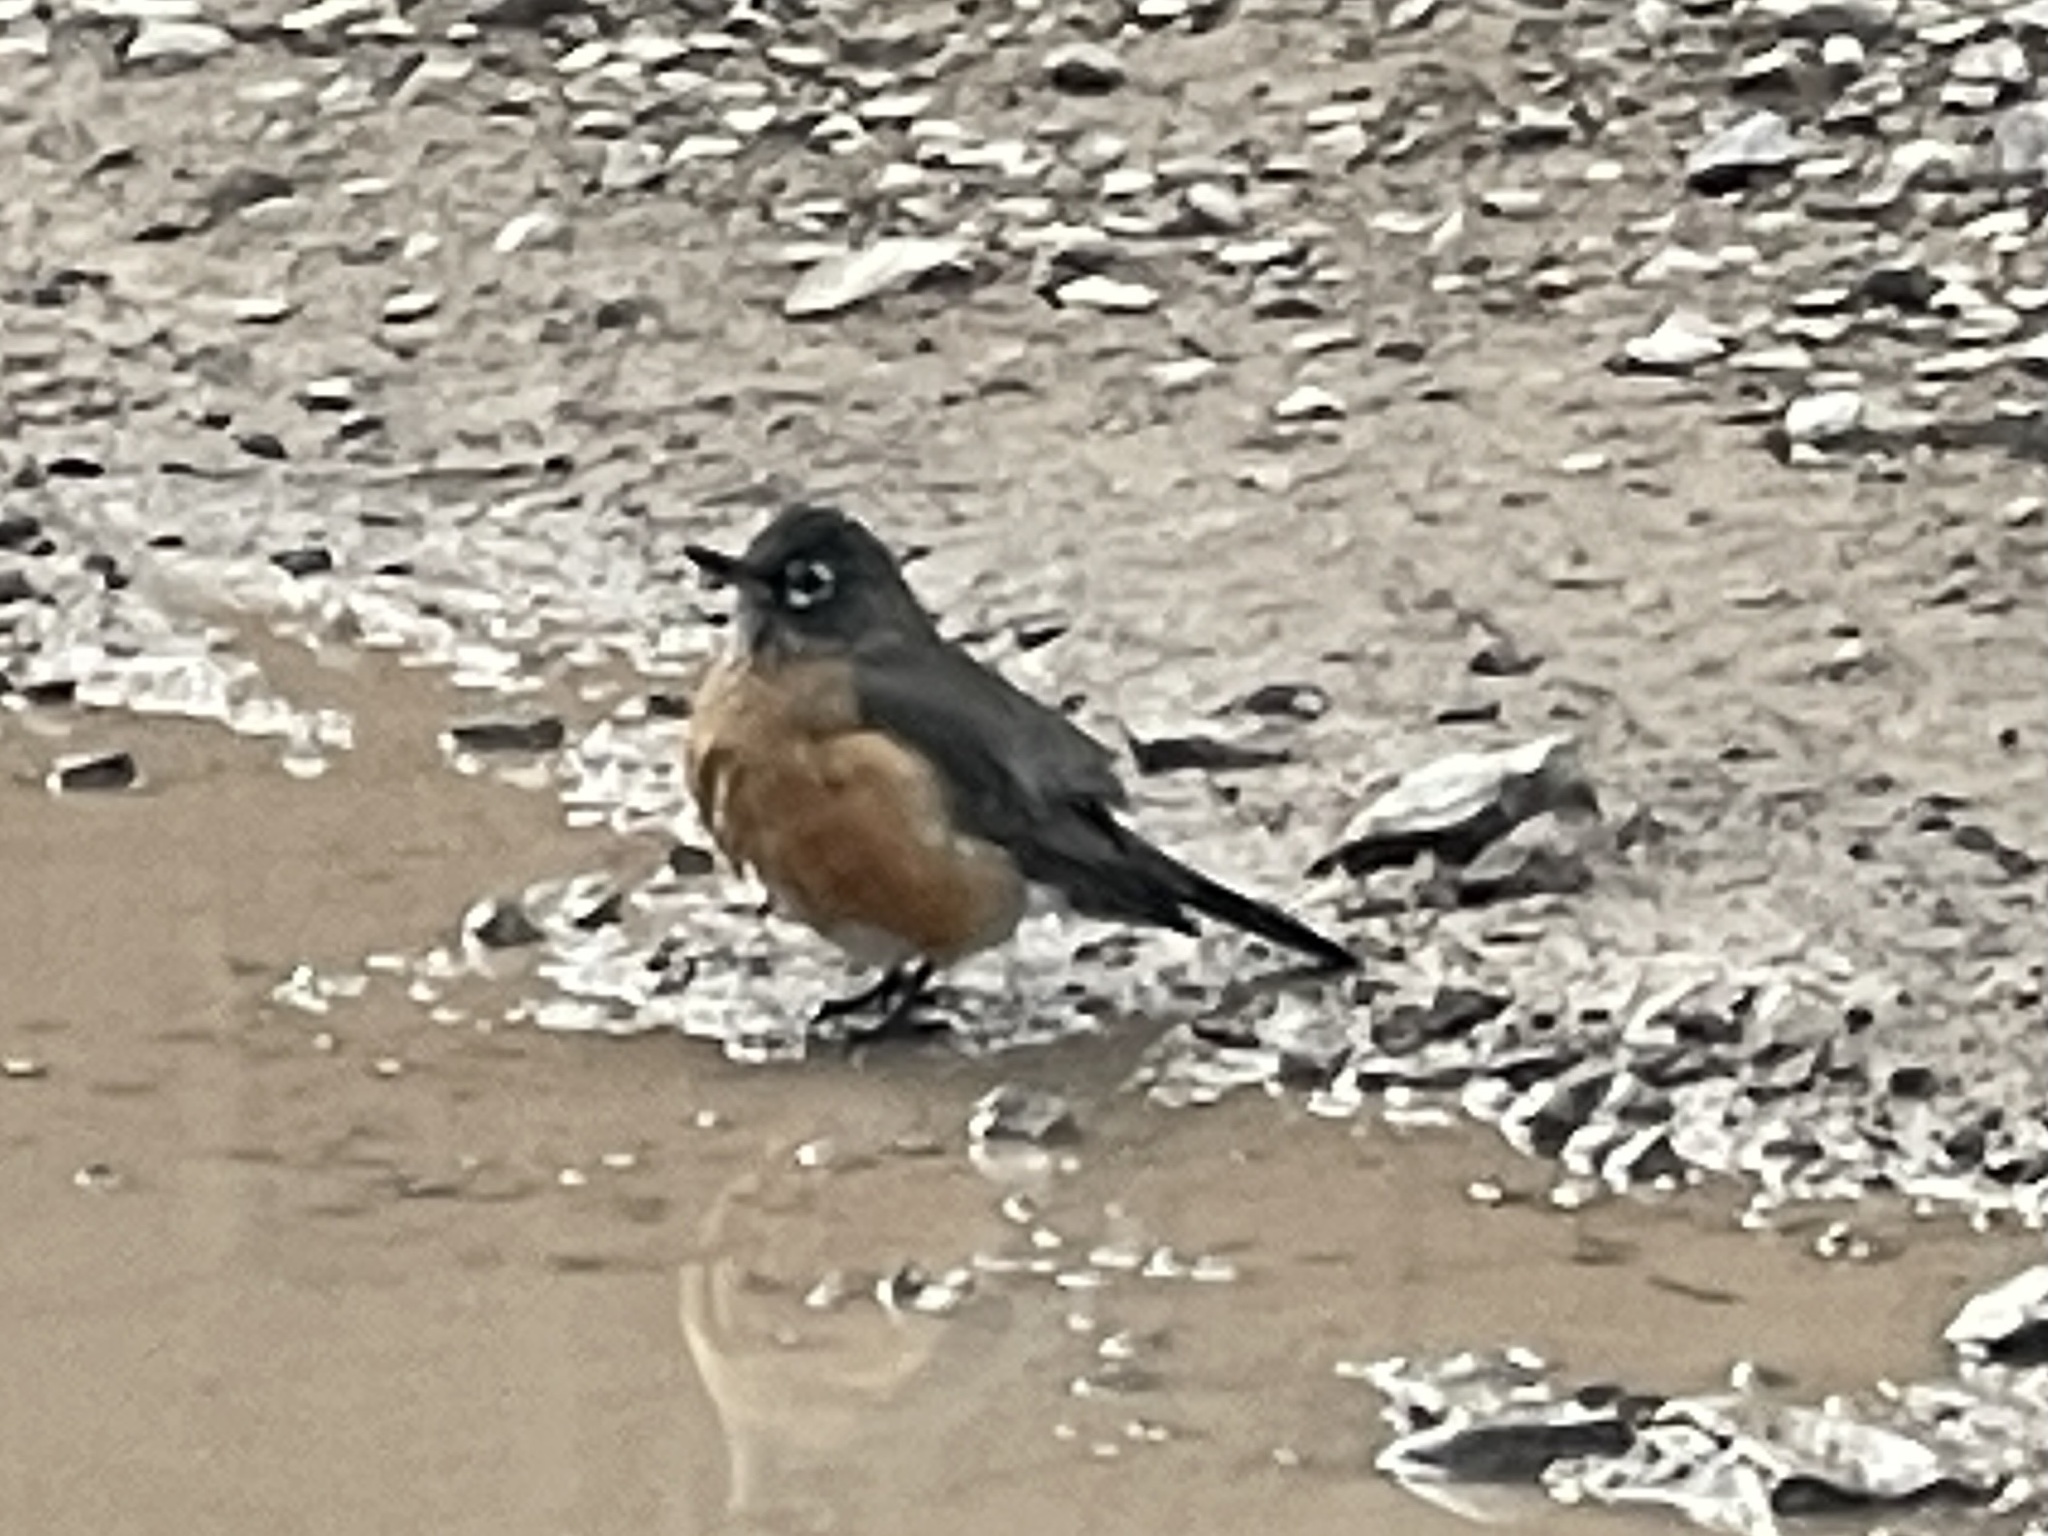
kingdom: Animalia
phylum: Chordata
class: Aves
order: Passeriformes
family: Turdidae
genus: Turdus
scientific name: Turdus migratorius
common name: American robin
